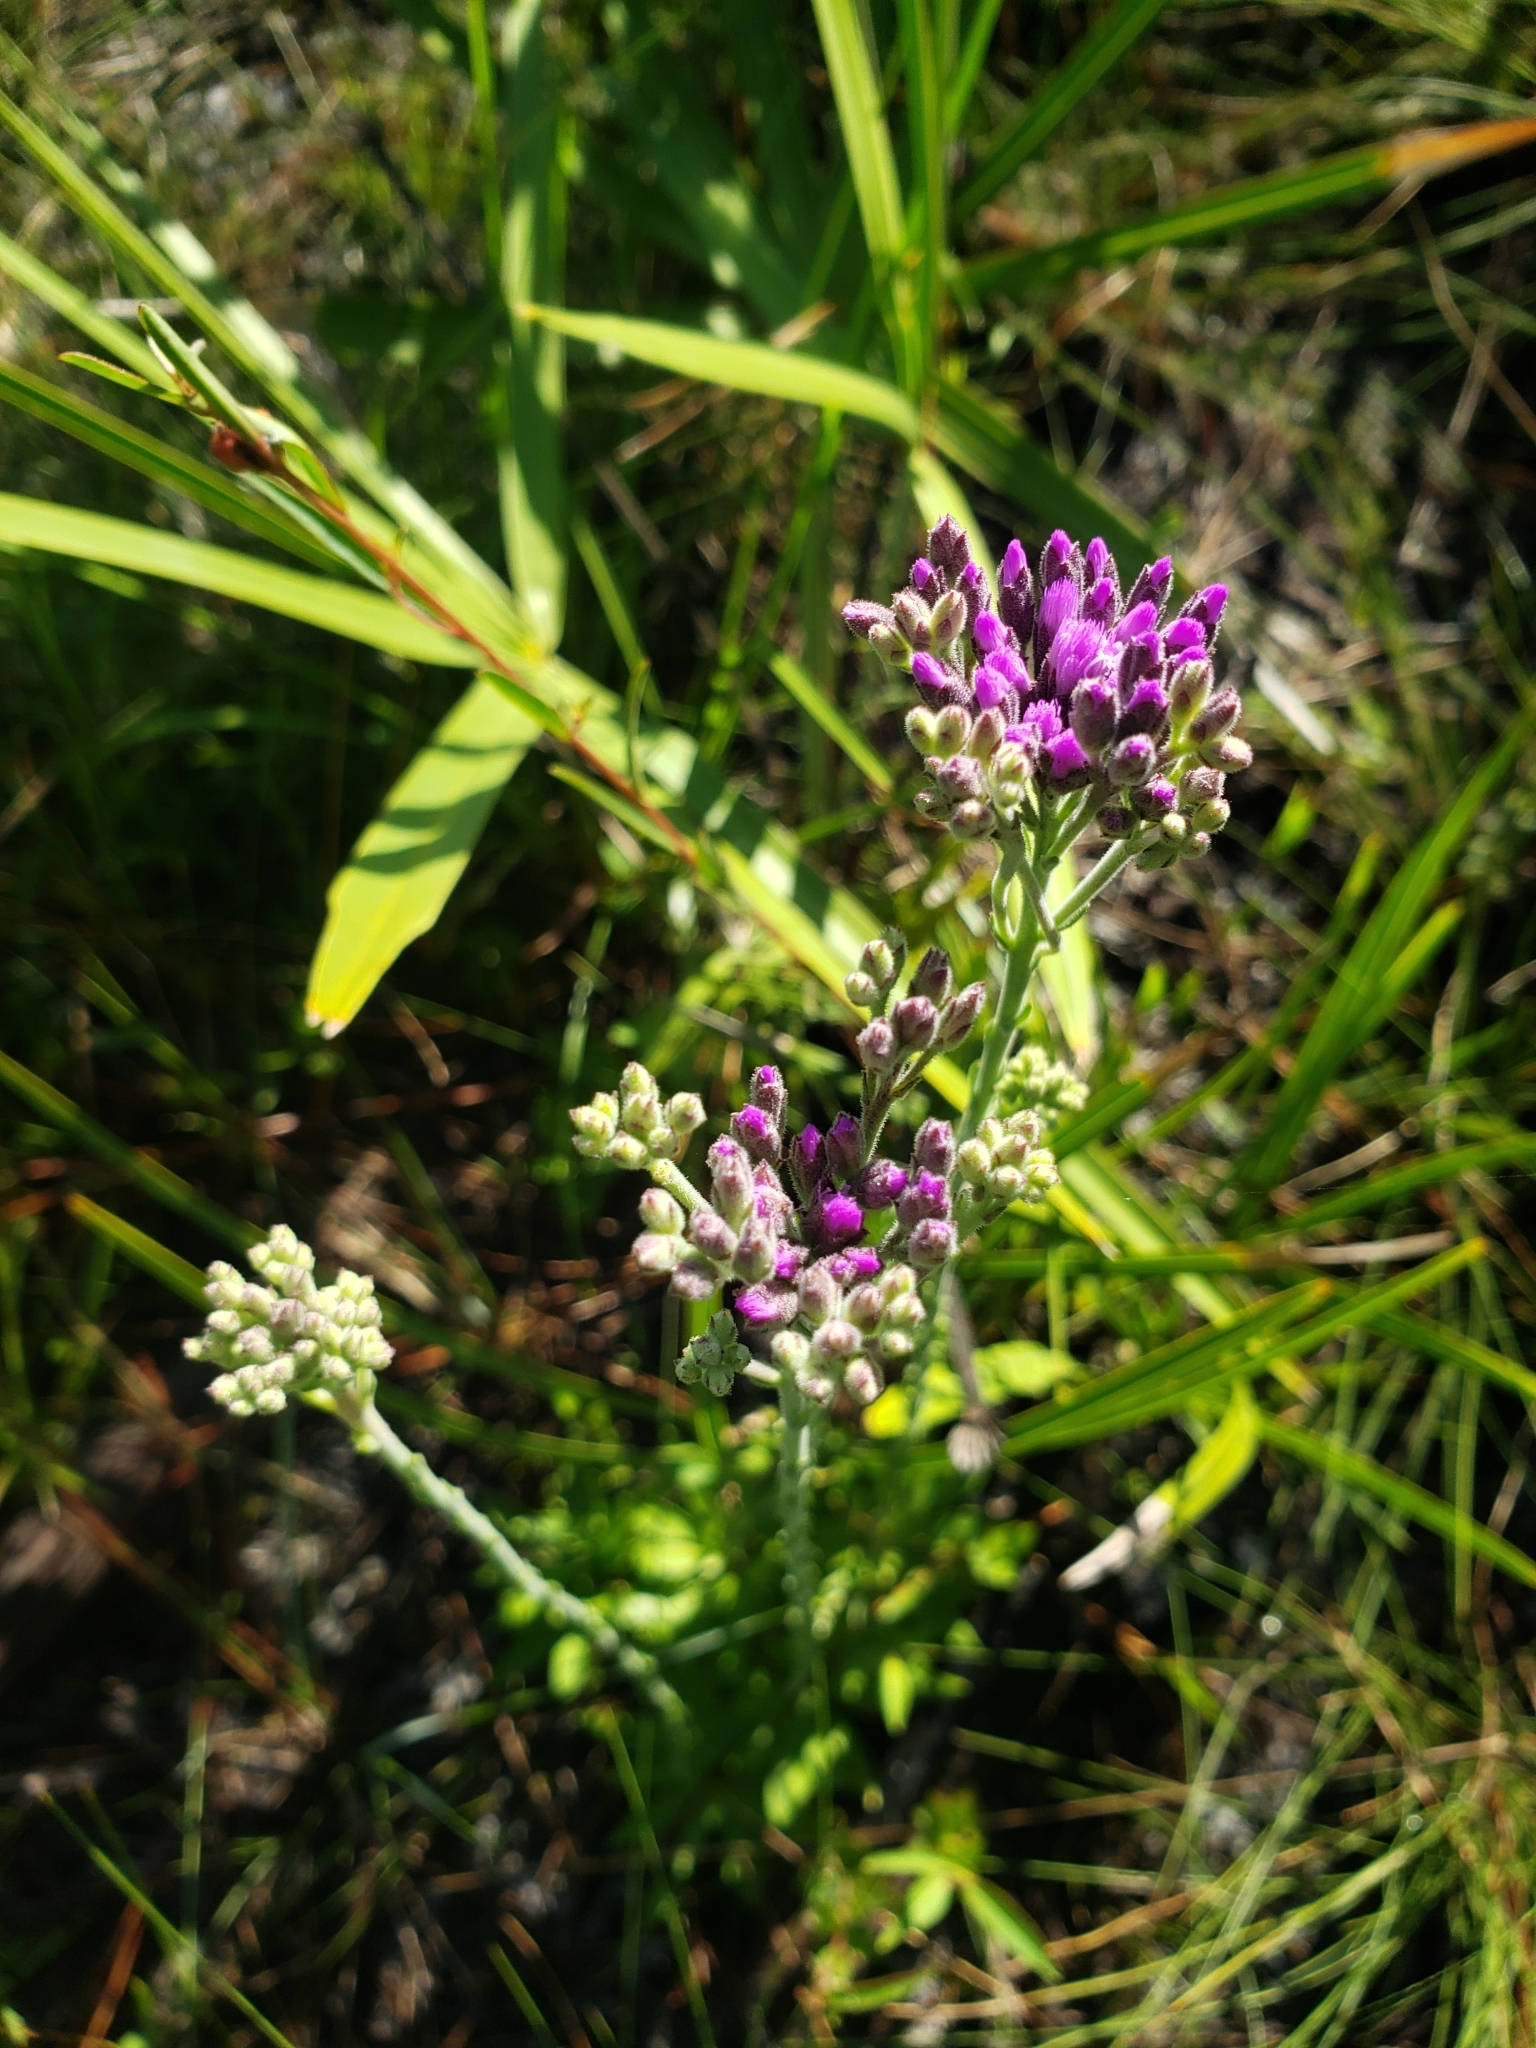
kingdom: Plantae
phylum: Tracheophyta
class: Magnoliopsida
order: Asterales
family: Asteraceae
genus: Carphephorus
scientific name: Carphephorus carnosus
